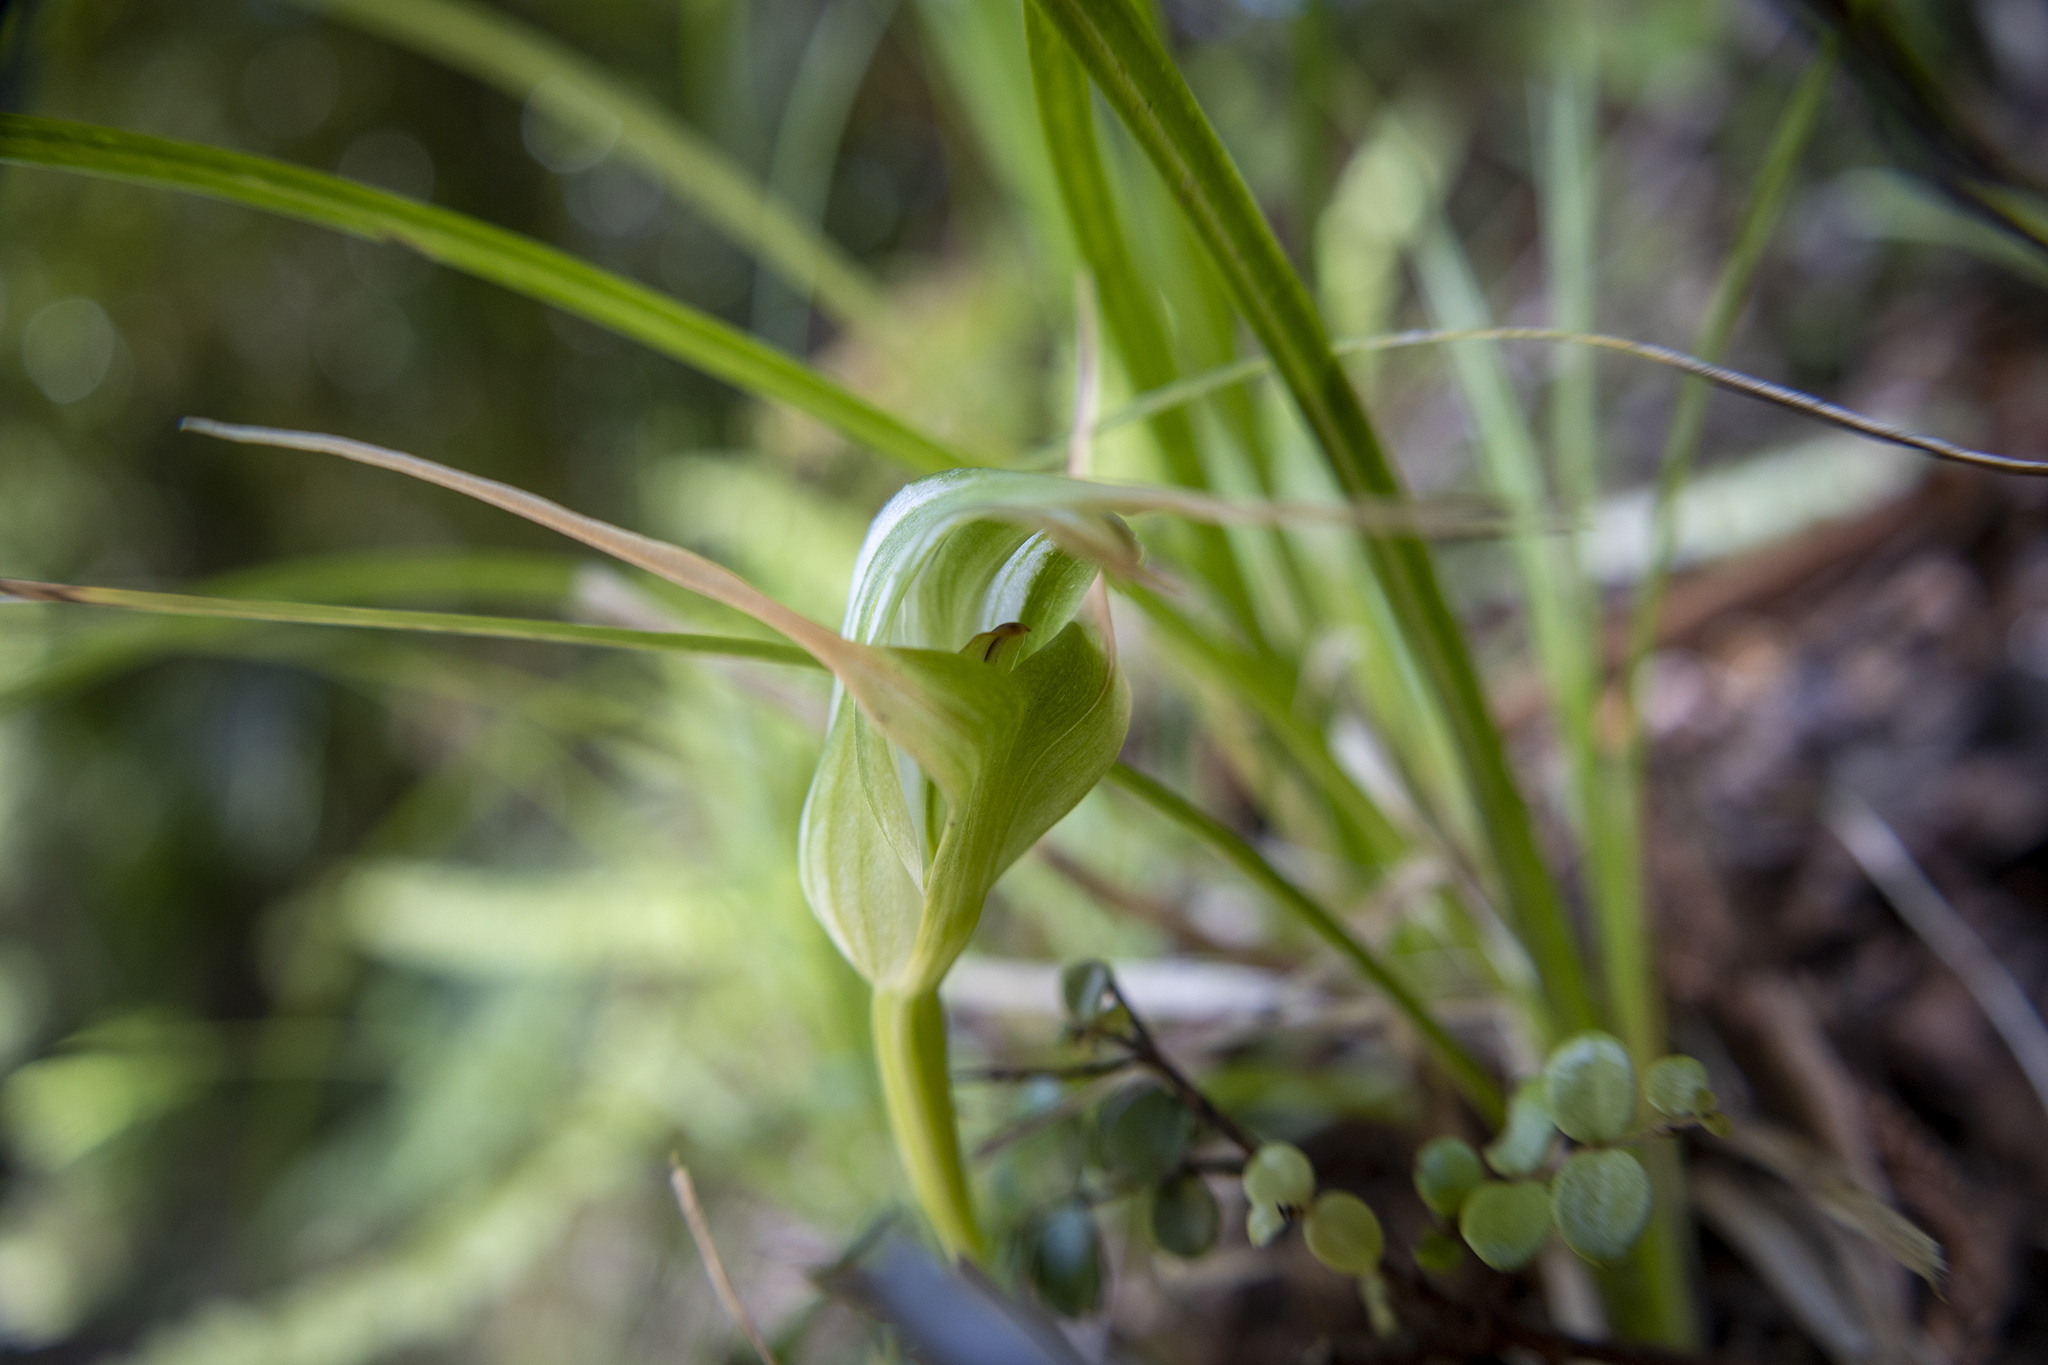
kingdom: Plantae
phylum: Tracheophyta
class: Liliopsida
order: Asparagales
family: Orchidaceae
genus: Pterostylis
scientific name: Pterostylis banksii
